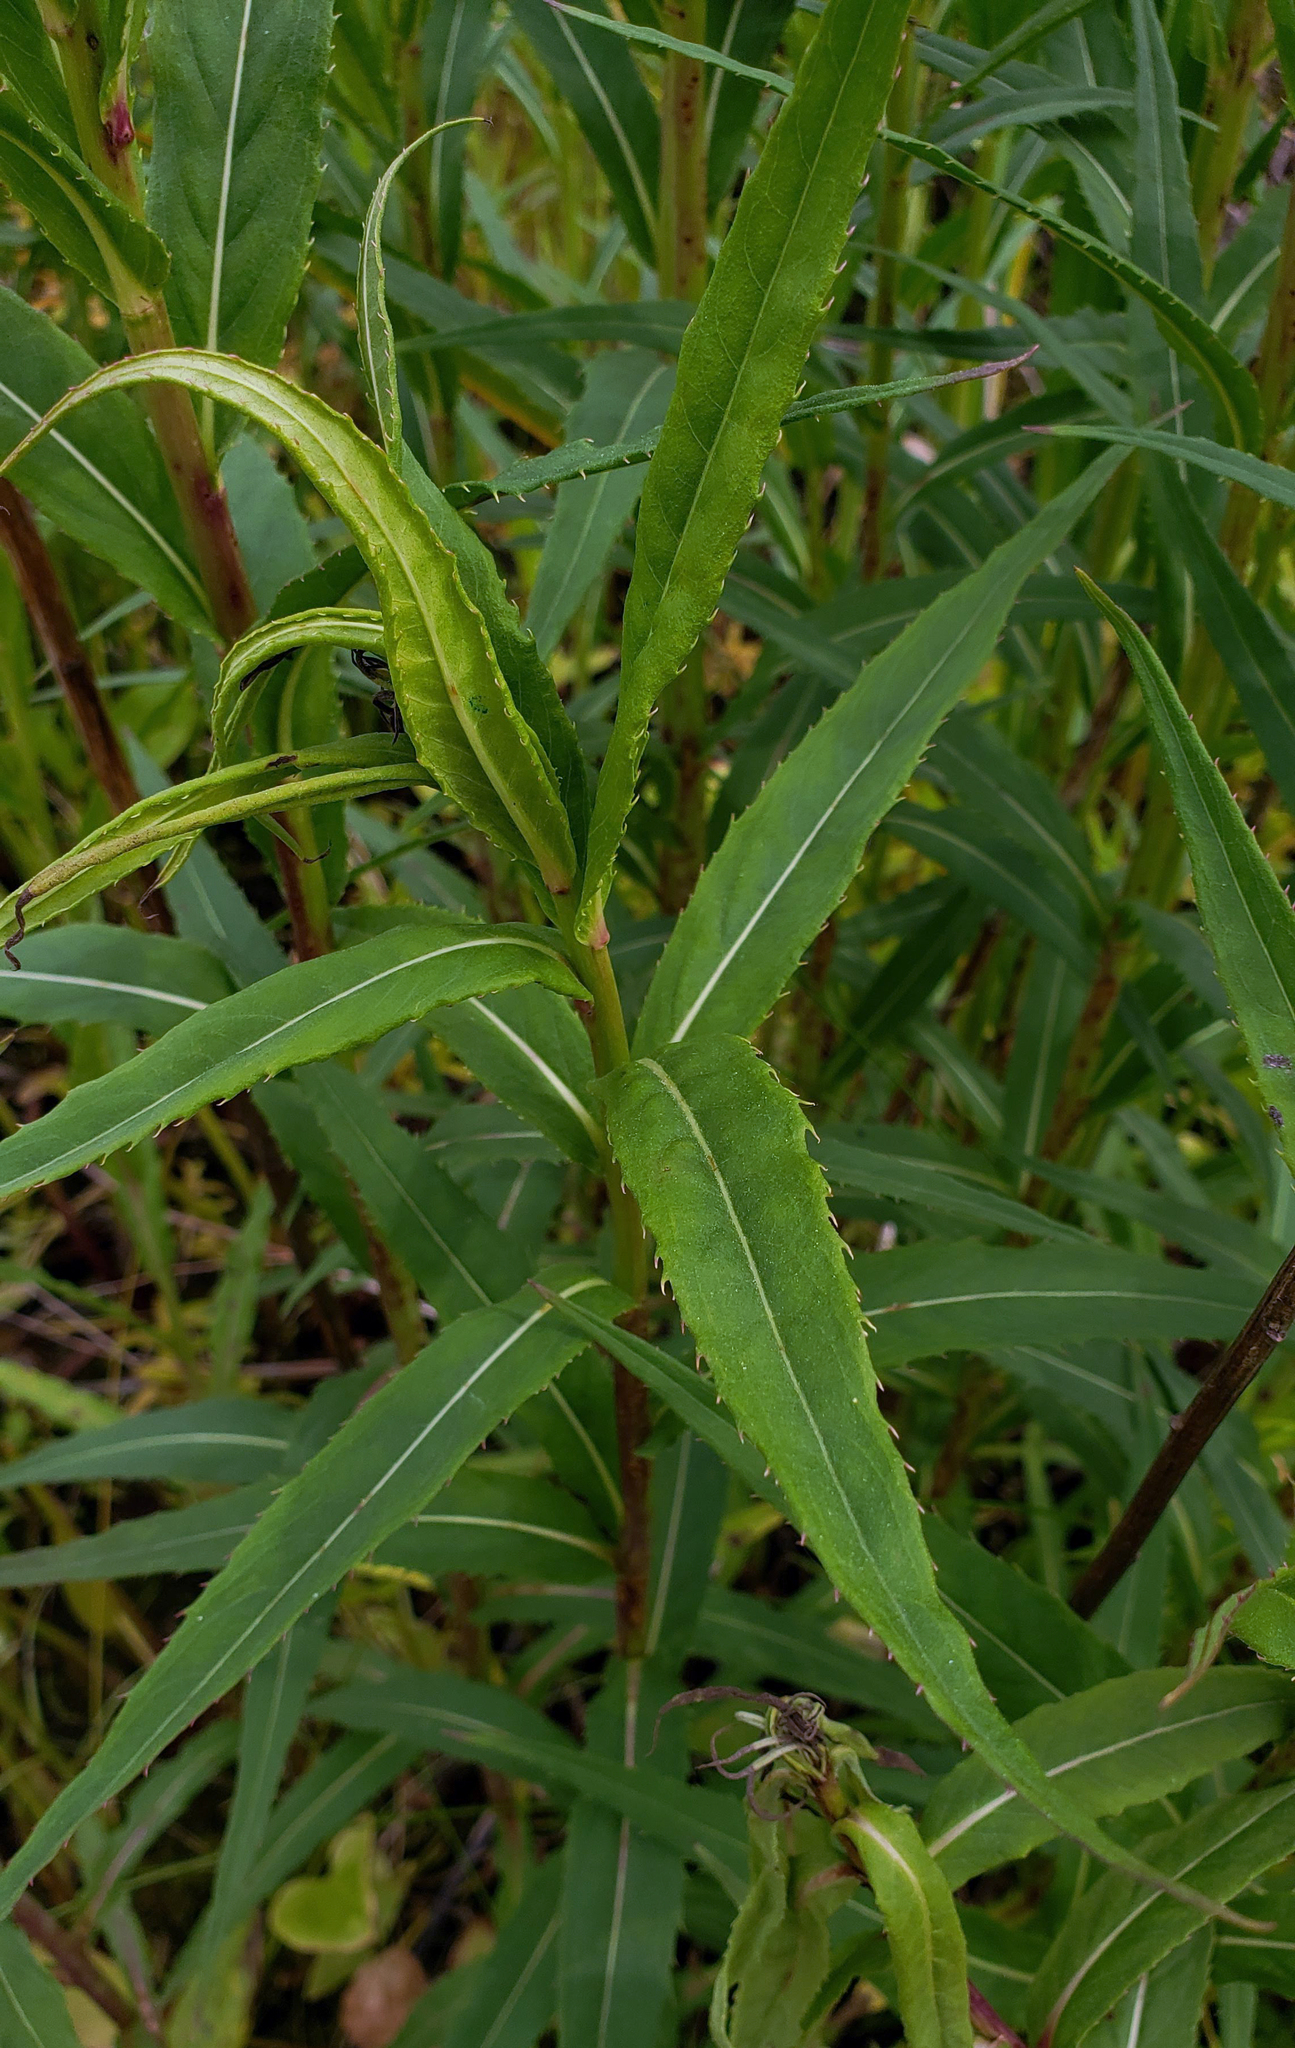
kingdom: Plantae
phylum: Tracheophyta
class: Magnoliopsida
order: Asterales
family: Asteraceae
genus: Vernonia
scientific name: Vernonia fasciculata
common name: Fascicled ironweed
